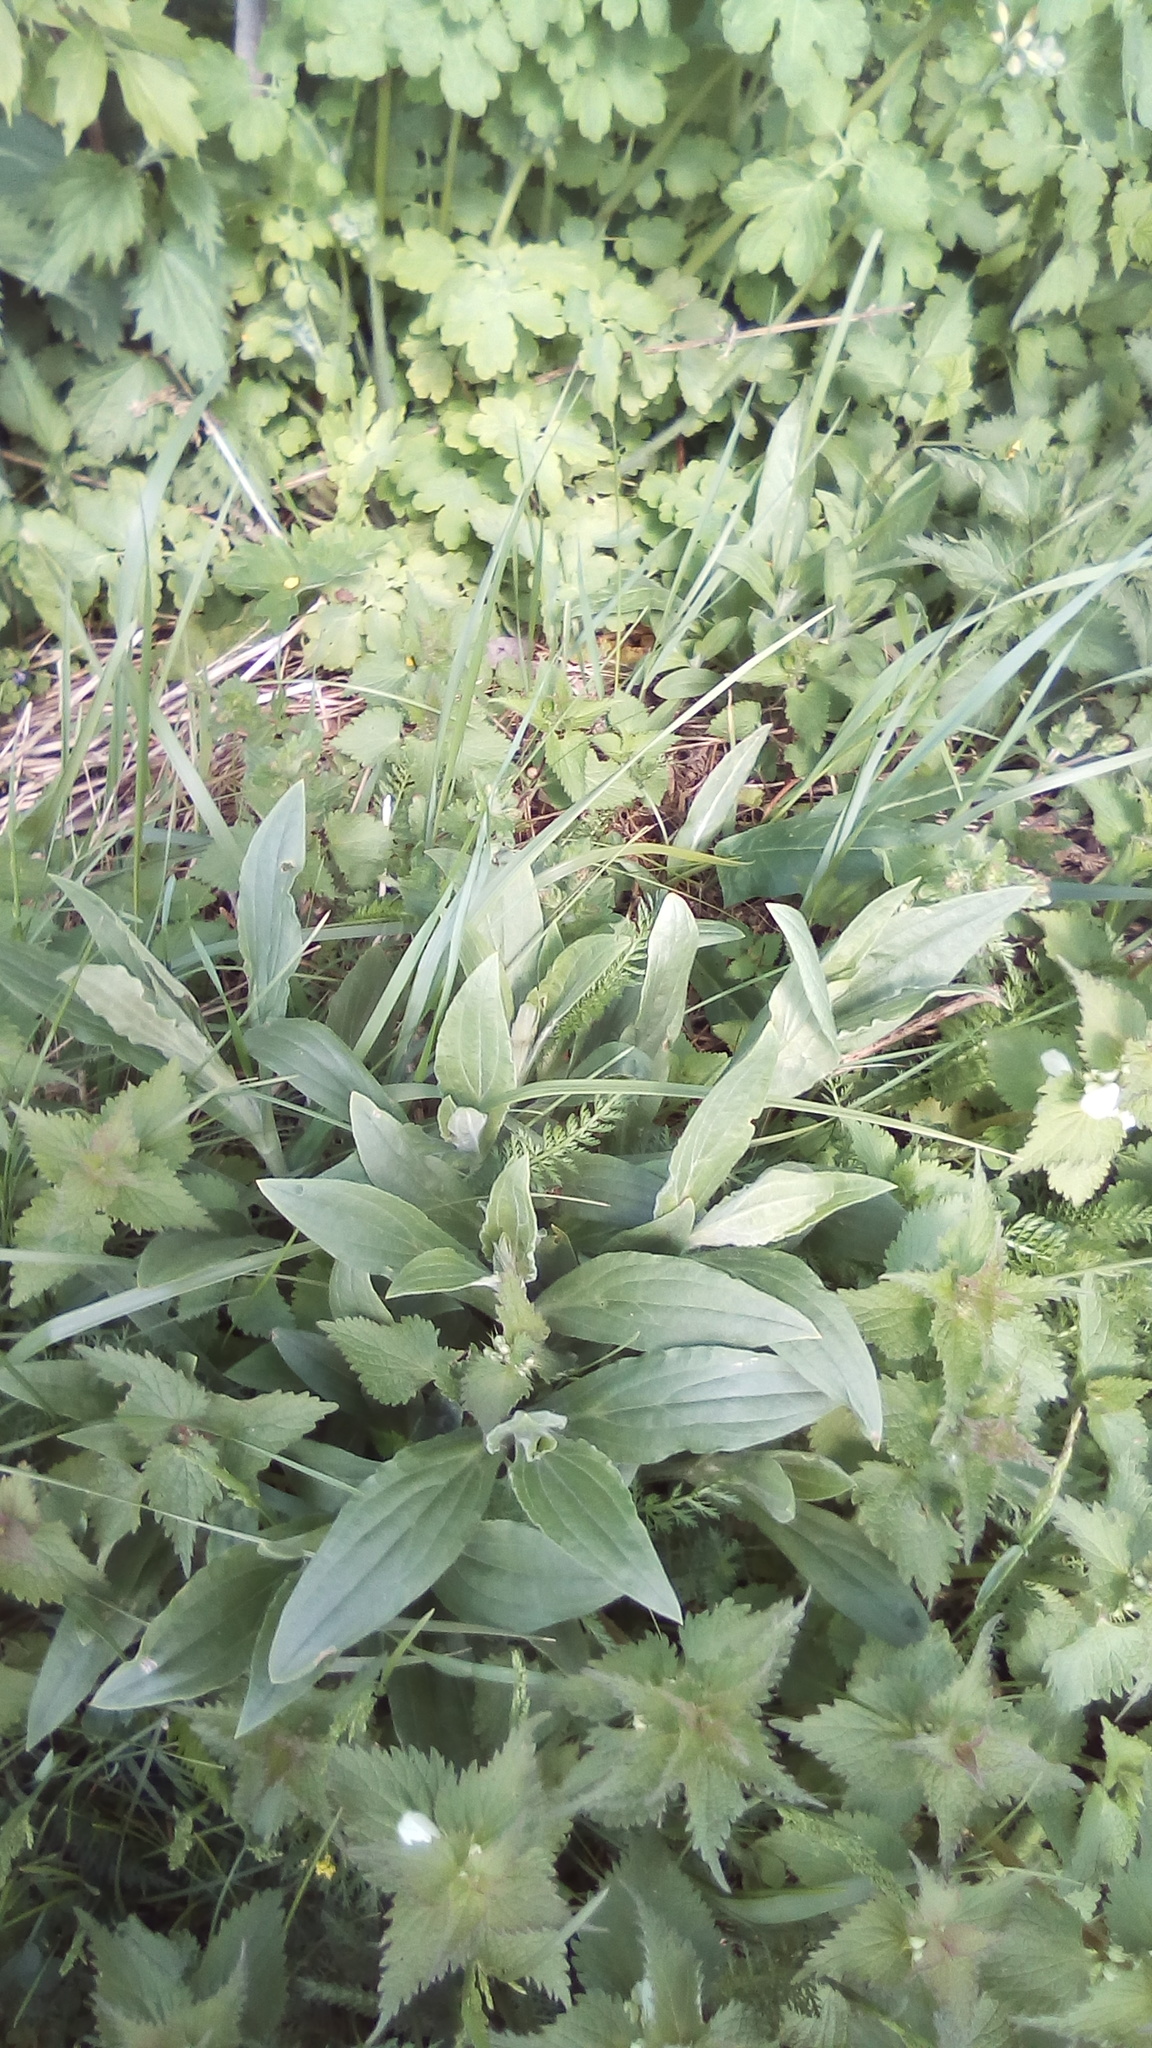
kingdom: Plantae
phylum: Tracheophyta
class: Magnoliopsida
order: Caryophyllales
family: Caryophyllaceae
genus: Silene
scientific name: Silene latifolia
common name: White campion
